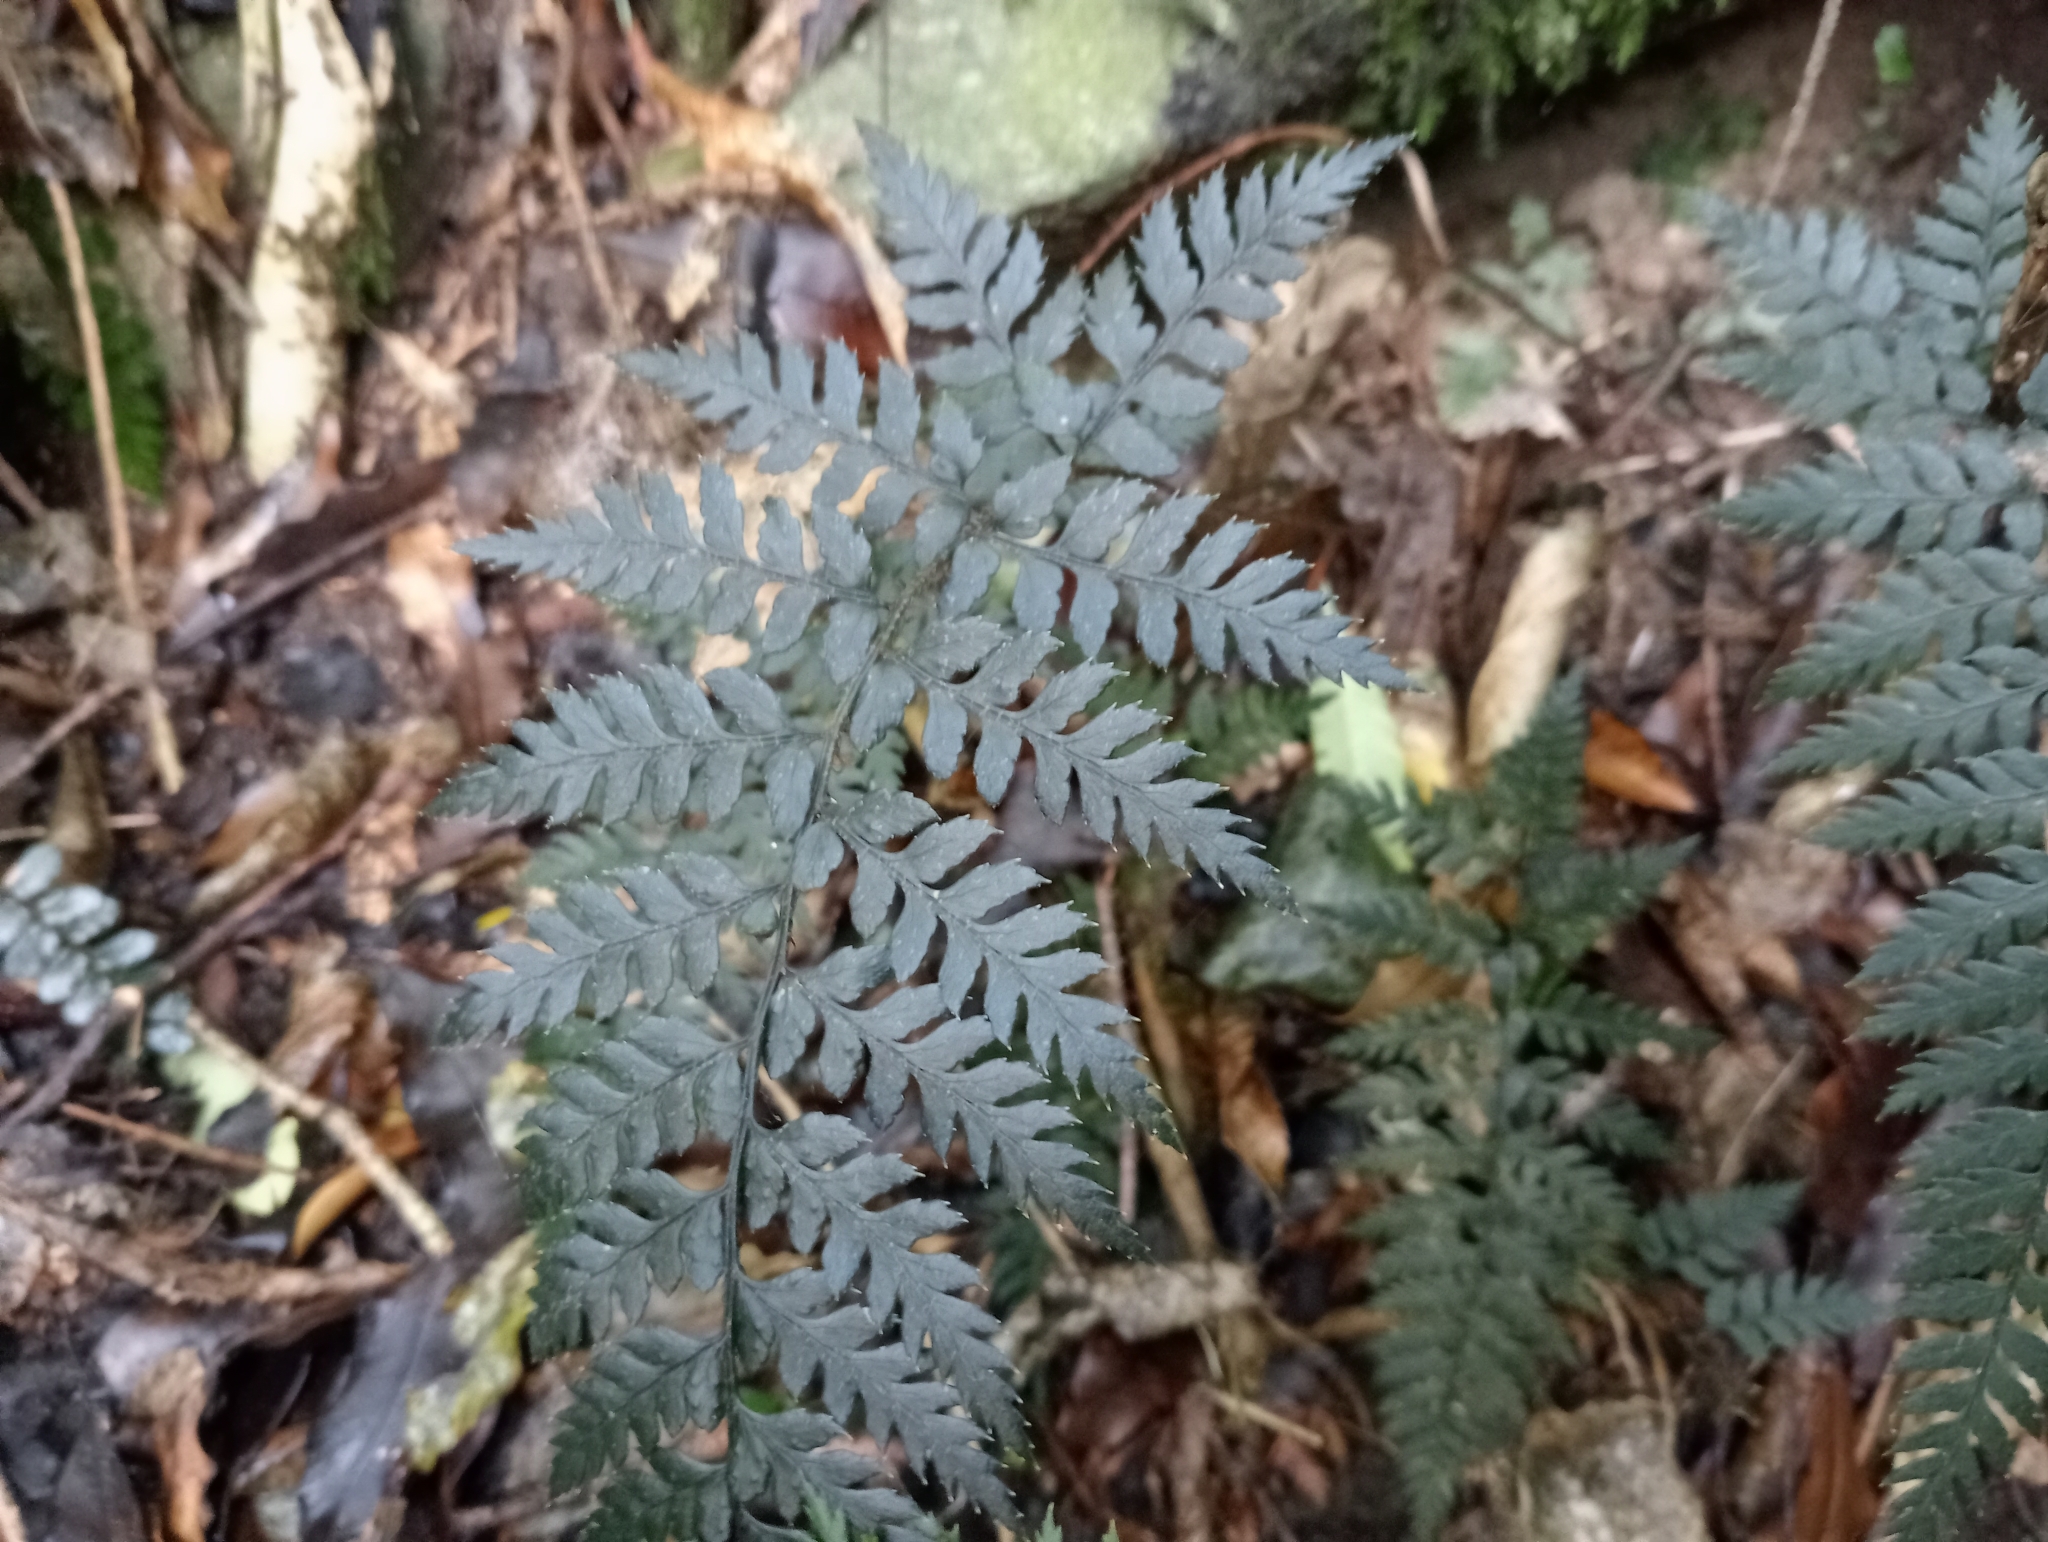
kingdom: Plantae
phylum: Tracheophyta
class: Polypodiopsida
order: Polypodiales
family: Dryopteridaceae
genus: Polystichum
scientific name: Polystichum neozelandicum
